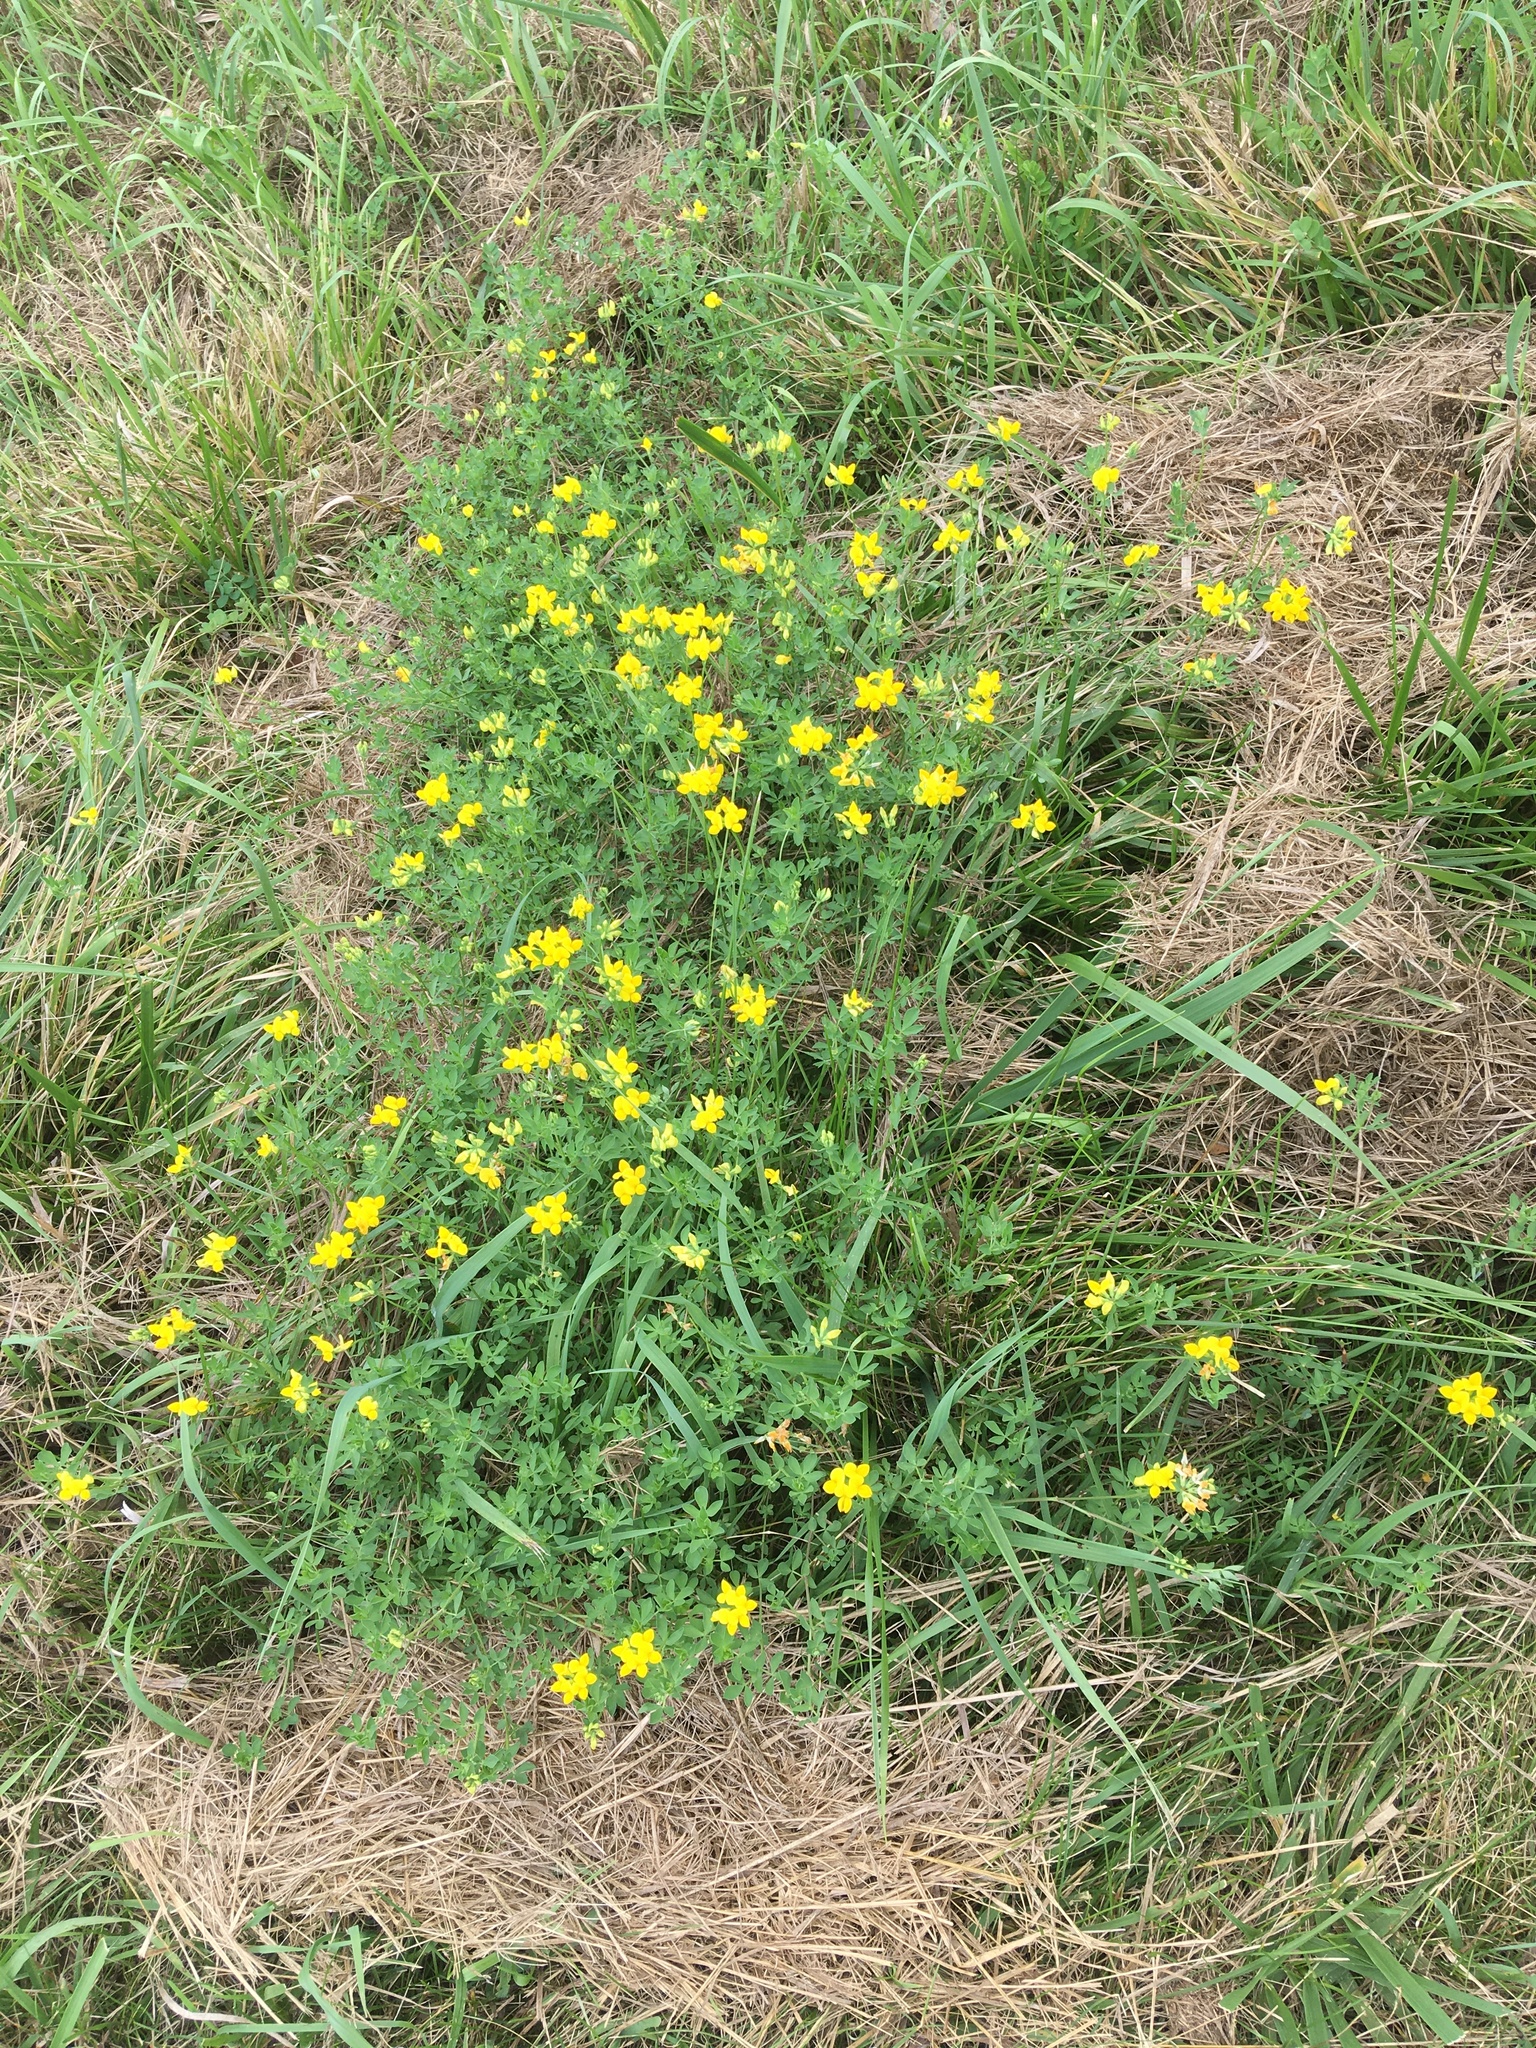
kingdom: Plantae
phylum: Tracheophyta
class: Magnoliopsida
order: Fabales
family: Fabaceae
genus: Lotus
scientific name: Lotus corniculatus
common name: Common bird's-foot-trefoil
